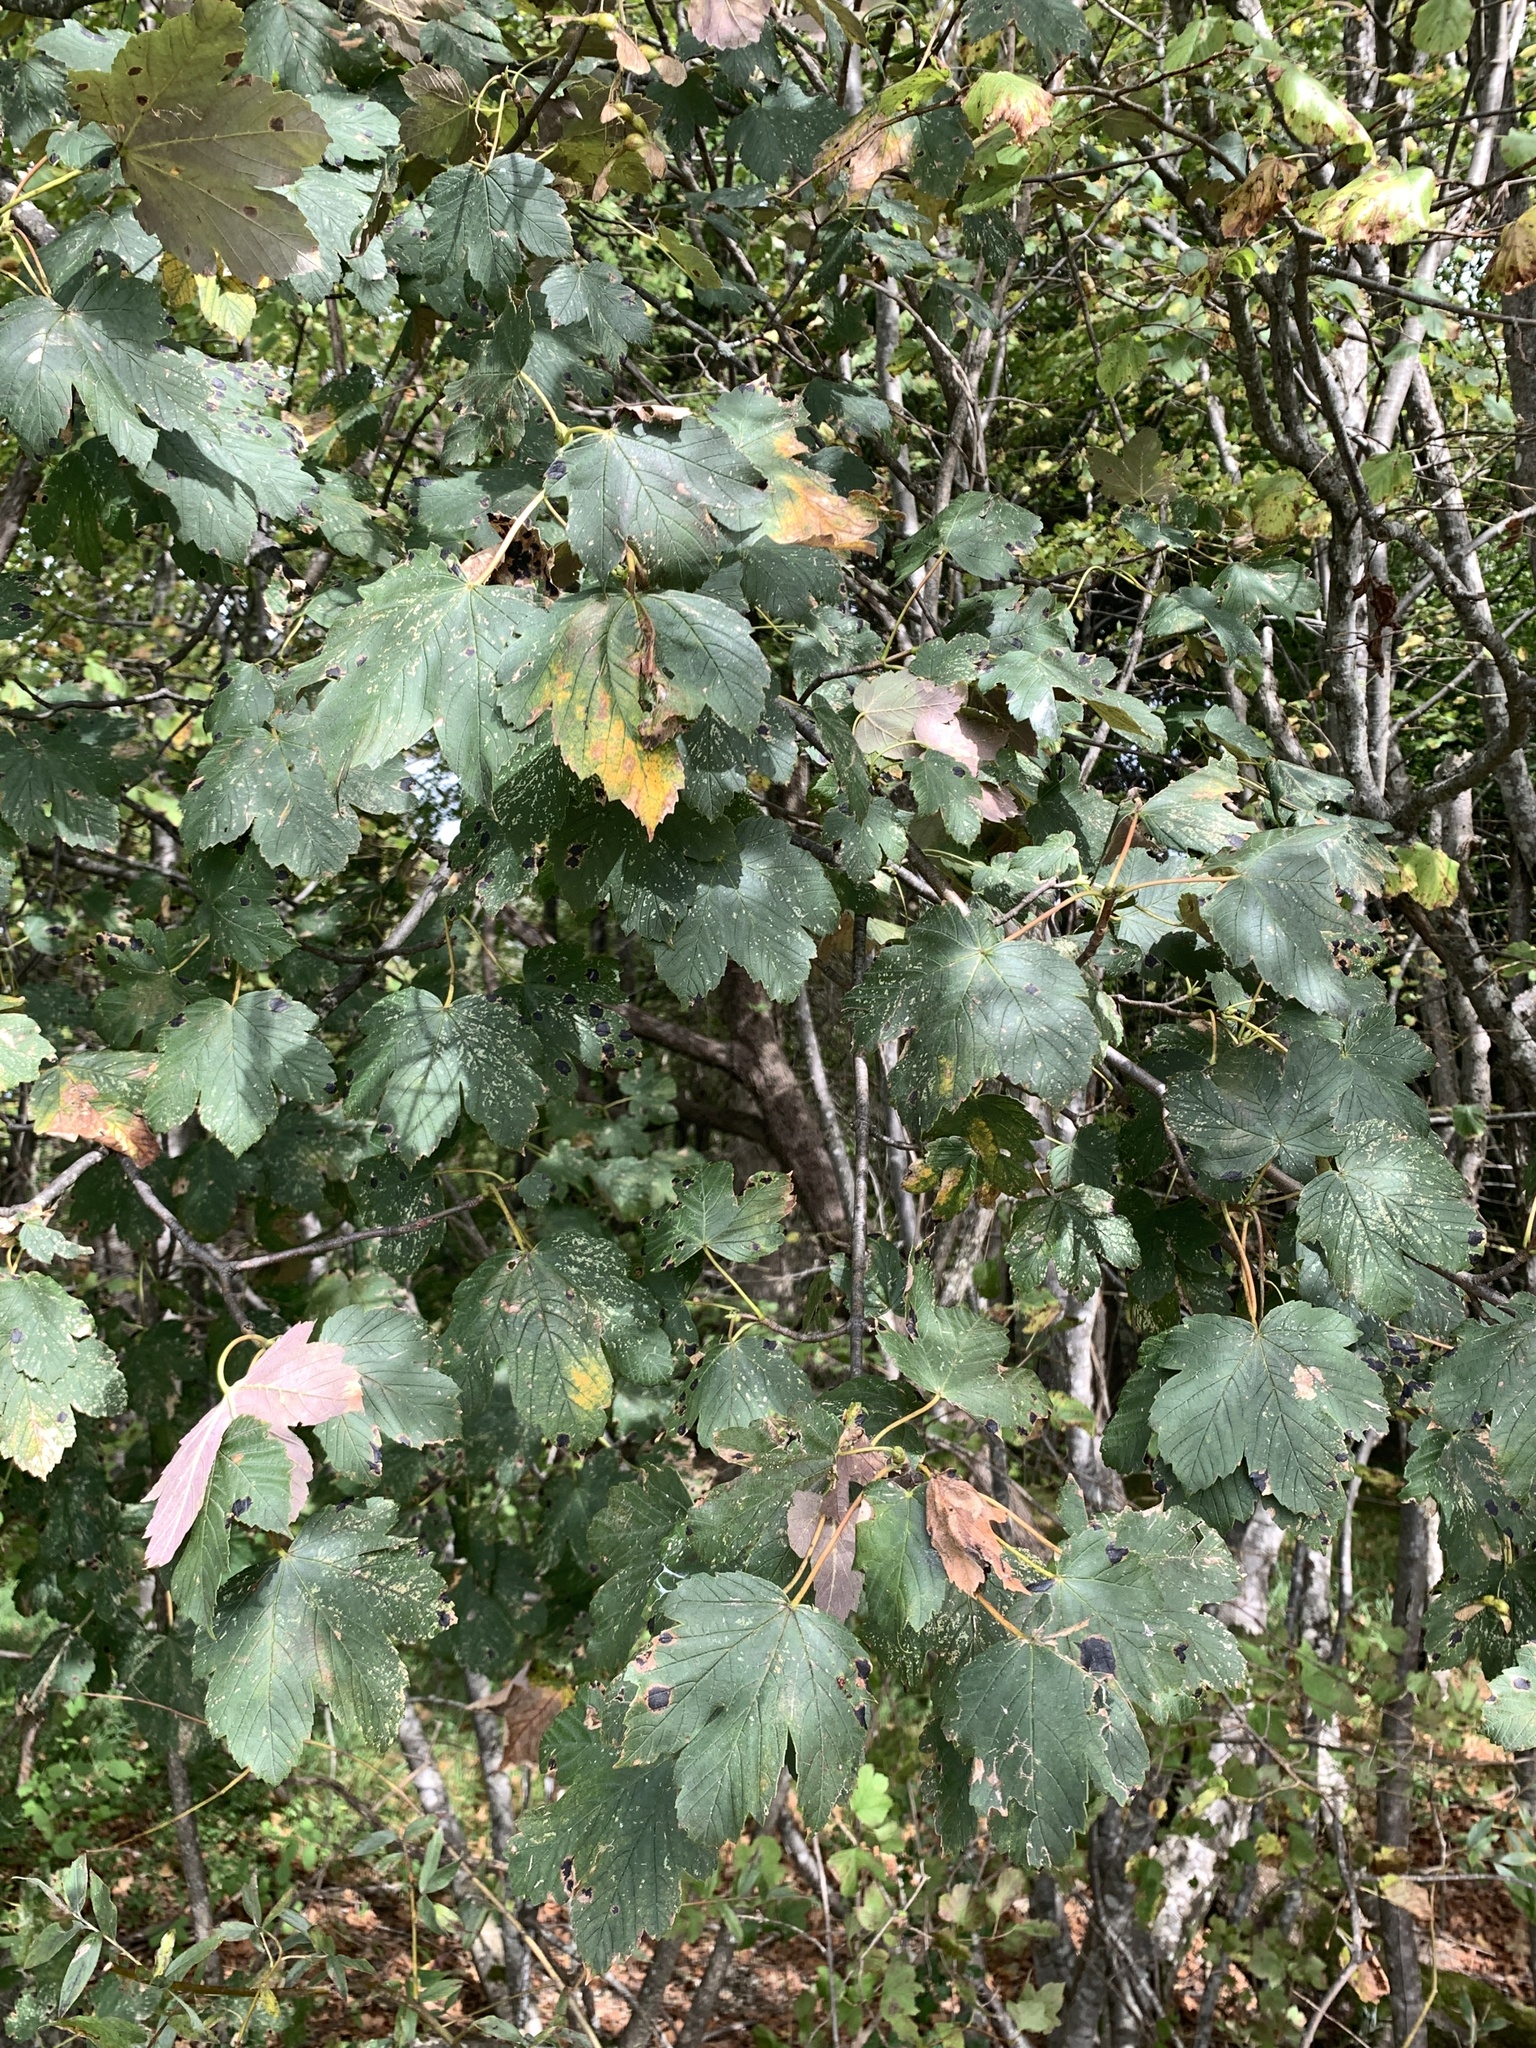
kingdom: Plantae
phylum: Tracheophyta
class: Magnoliopsida
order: Sapindales
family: Sapindaceae
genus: Acer
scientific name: Acer pseudoplatanus
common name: Sycamore
